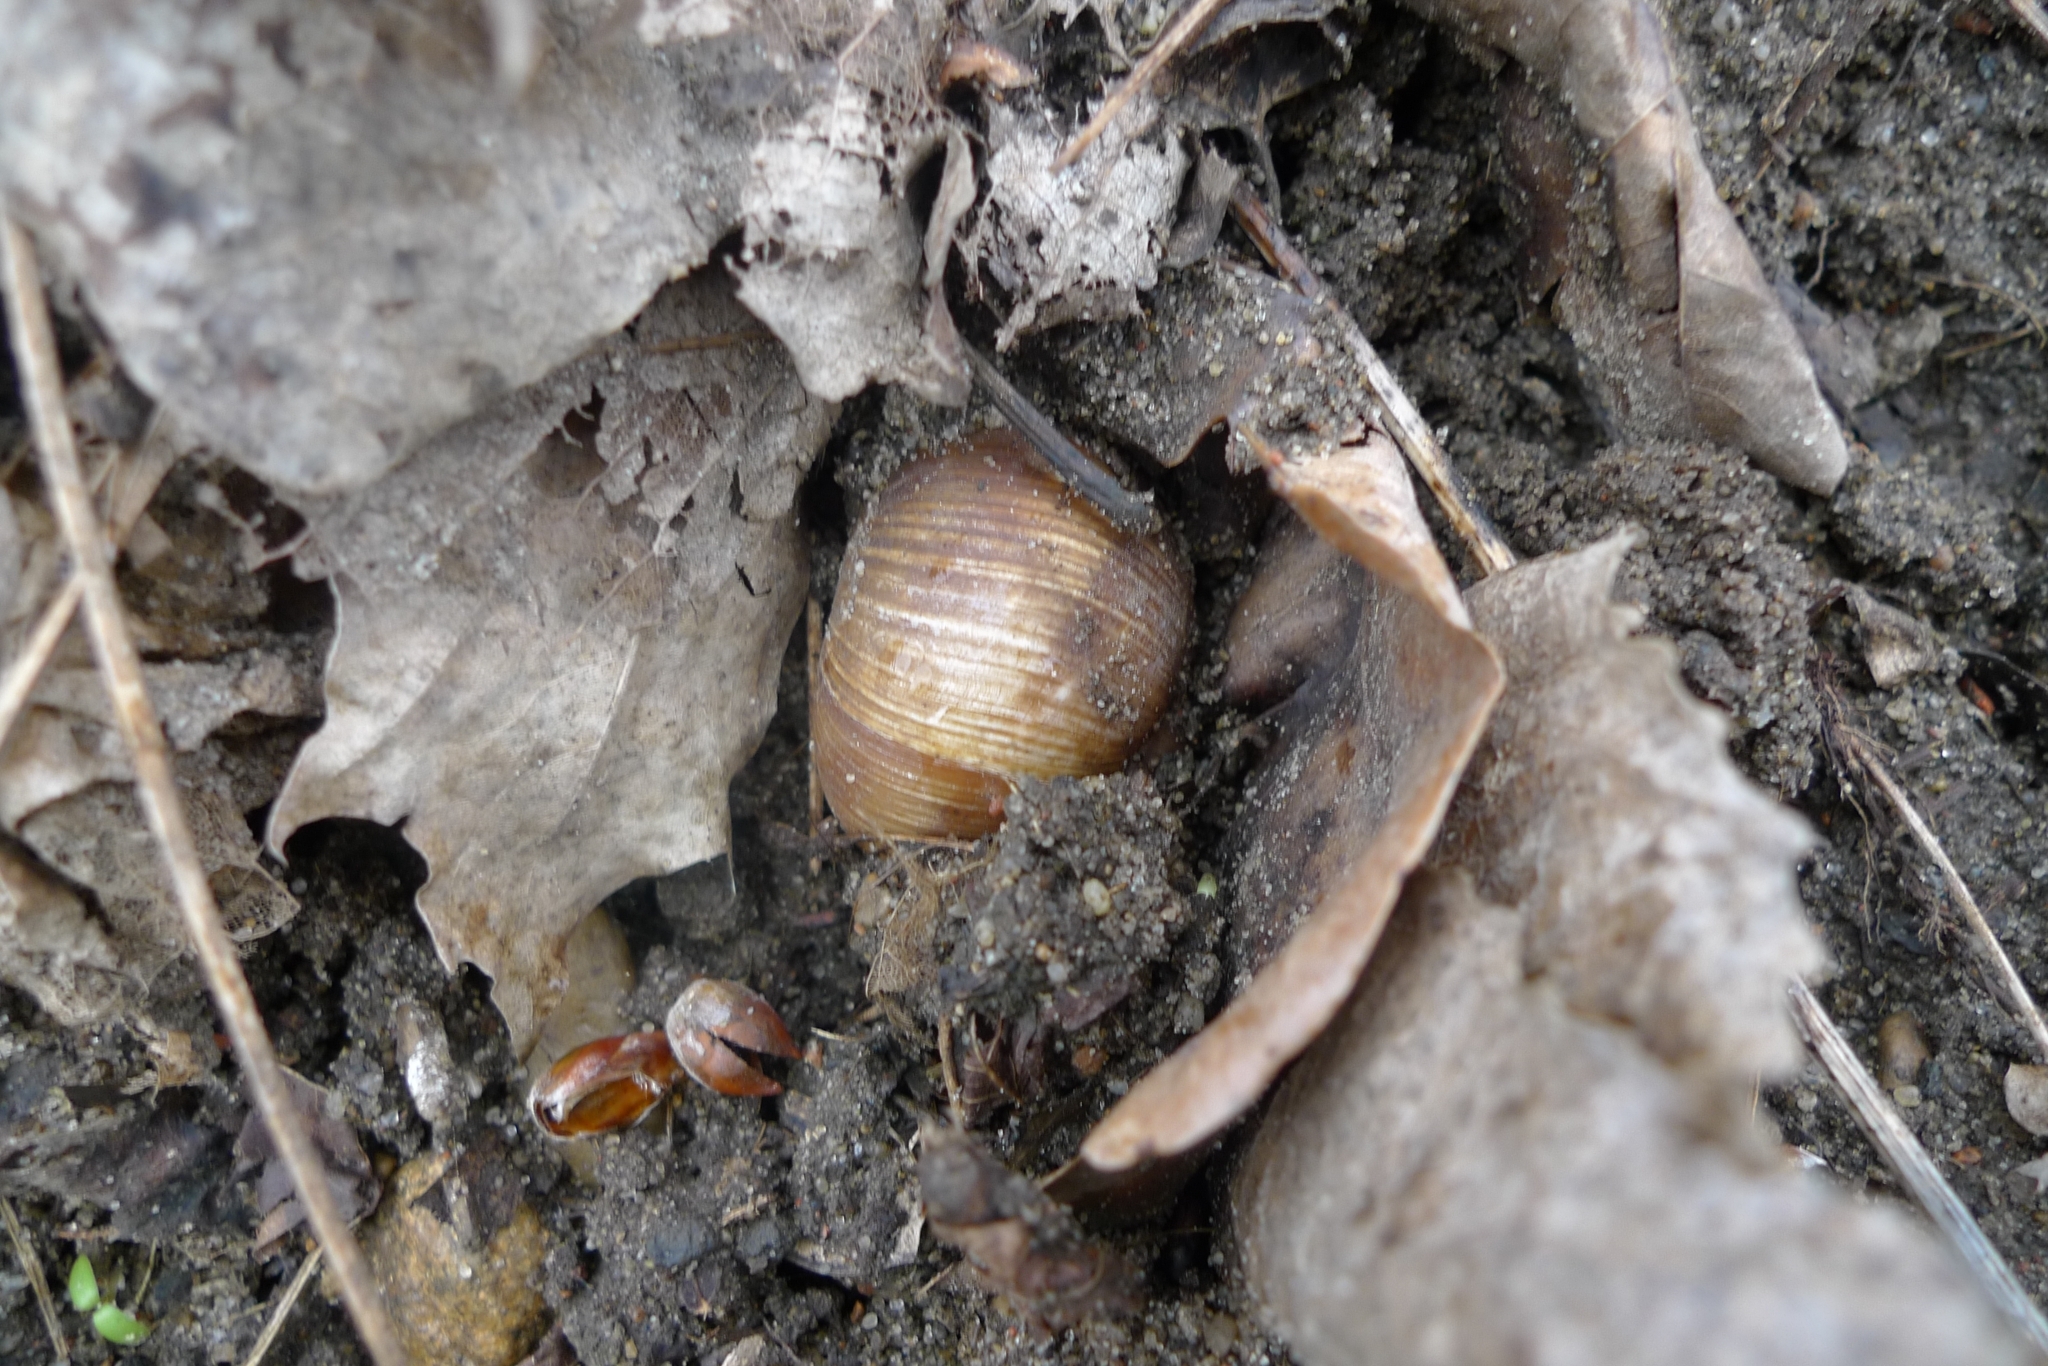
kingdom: Animalia
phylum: Mollusca
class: Gastropoda
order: Stylommatophora
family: Helicidae
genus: Helix
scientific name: Helix pomatia
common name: Roman snail
